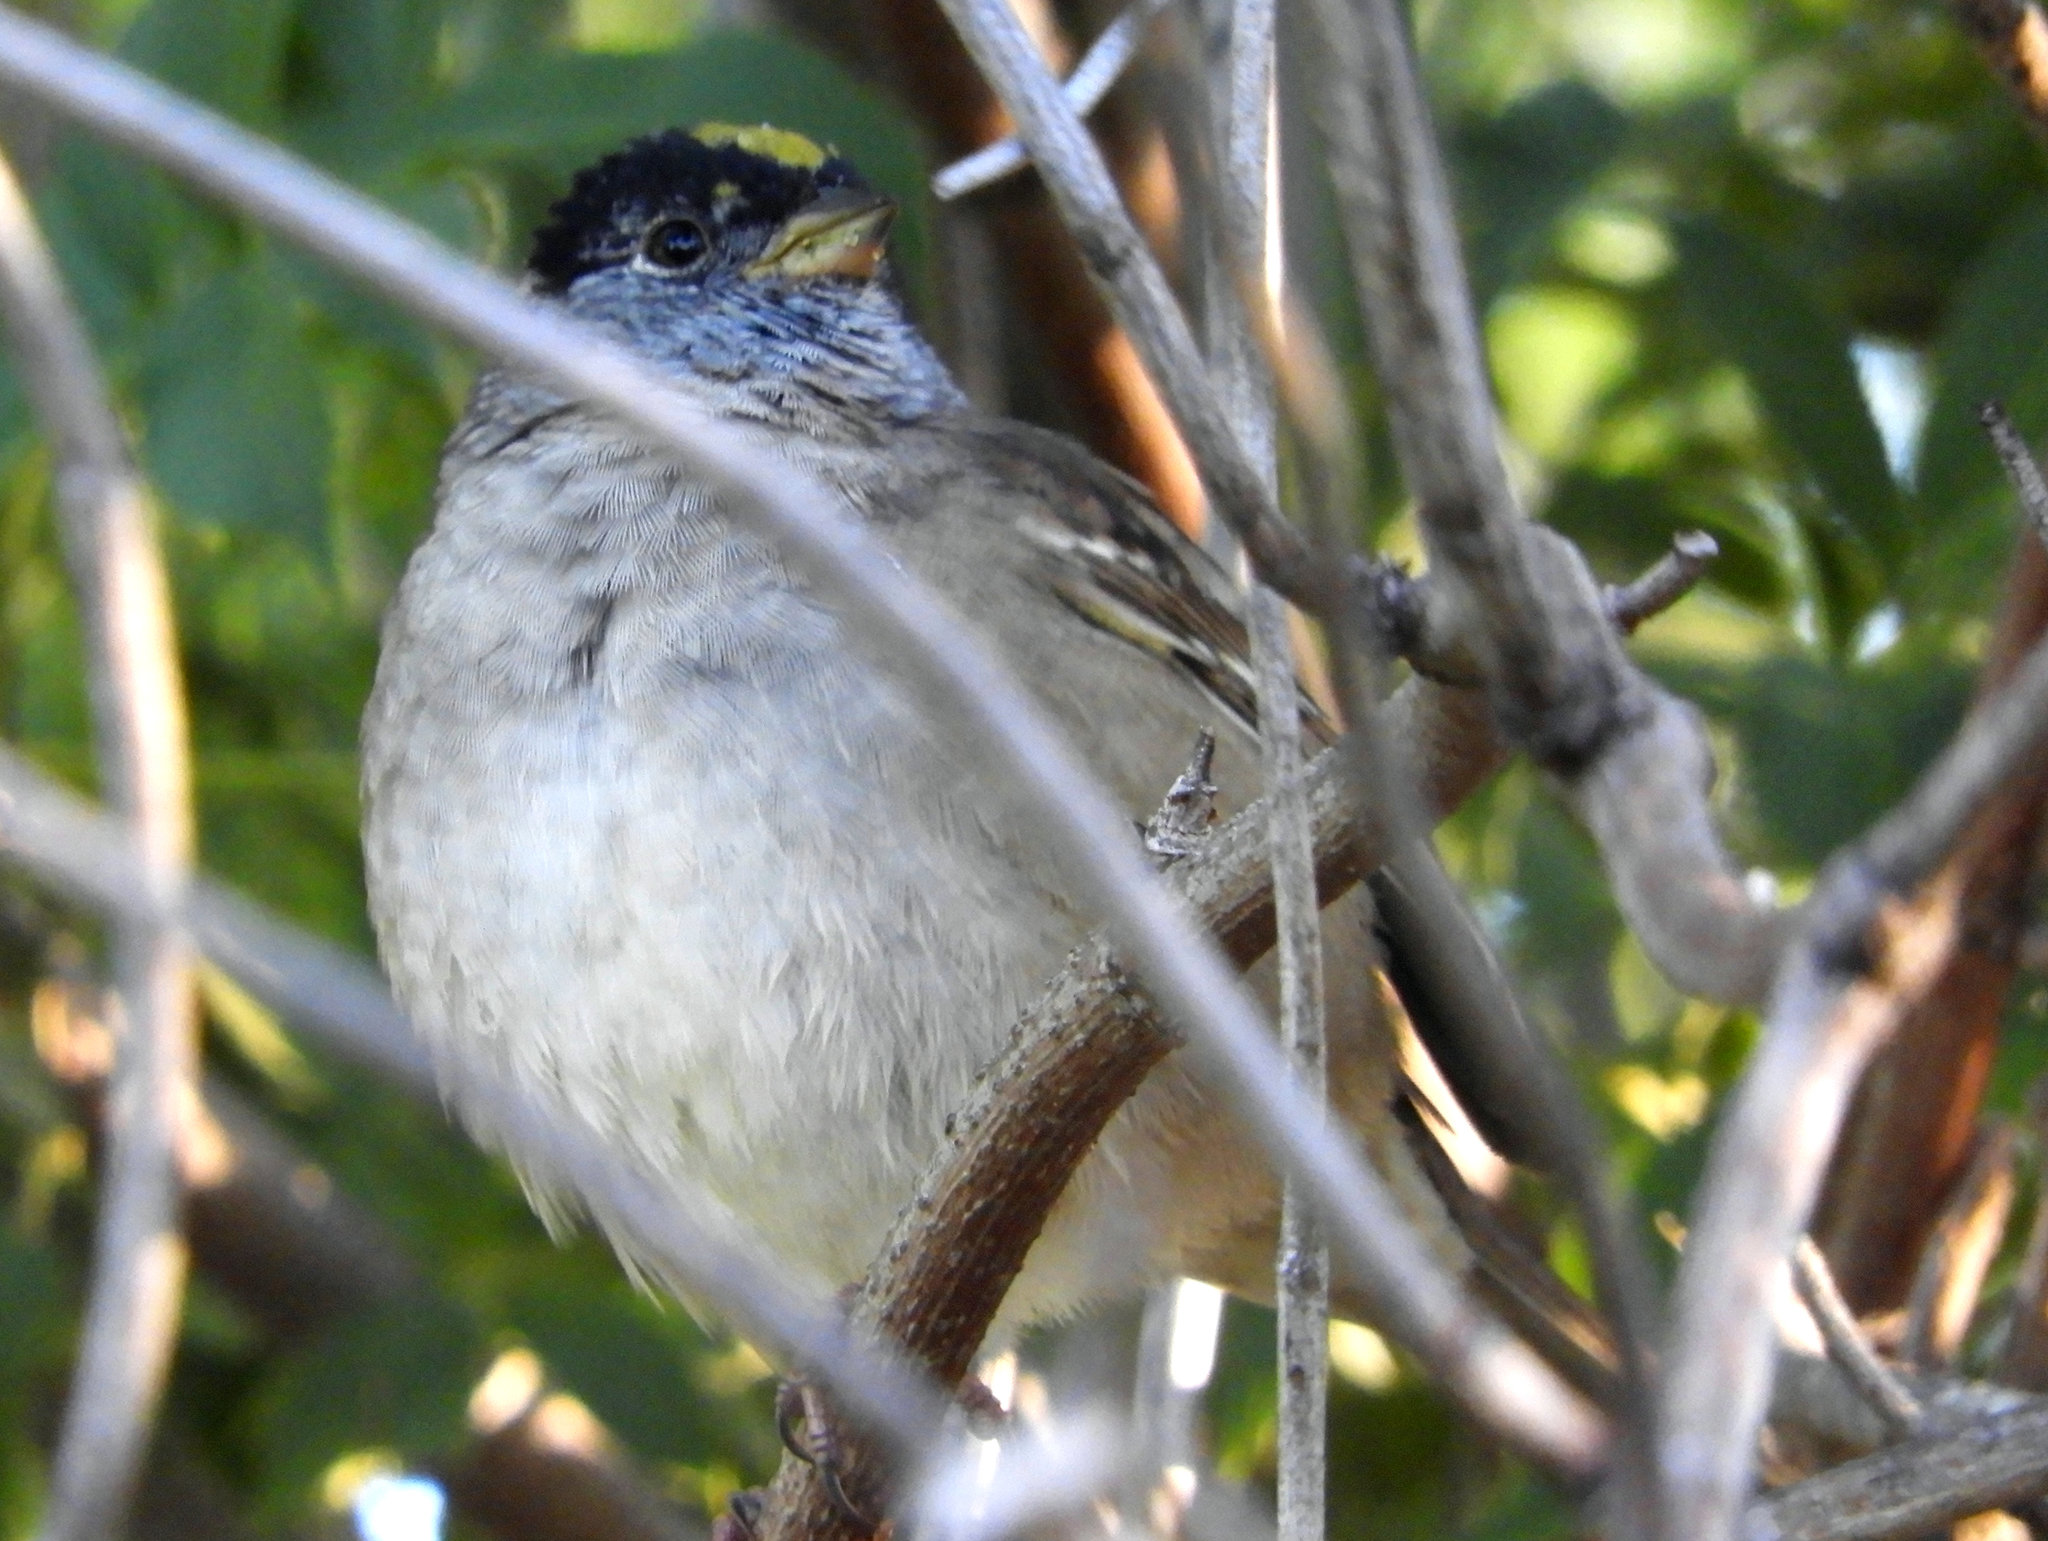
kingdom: Animalia
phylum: Chordata
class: Aves
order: Passeriformes
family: Passerellidae
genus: Zonotrichia
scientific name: Zonotrichia atricapilla
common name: Golden-crowned sparrow
